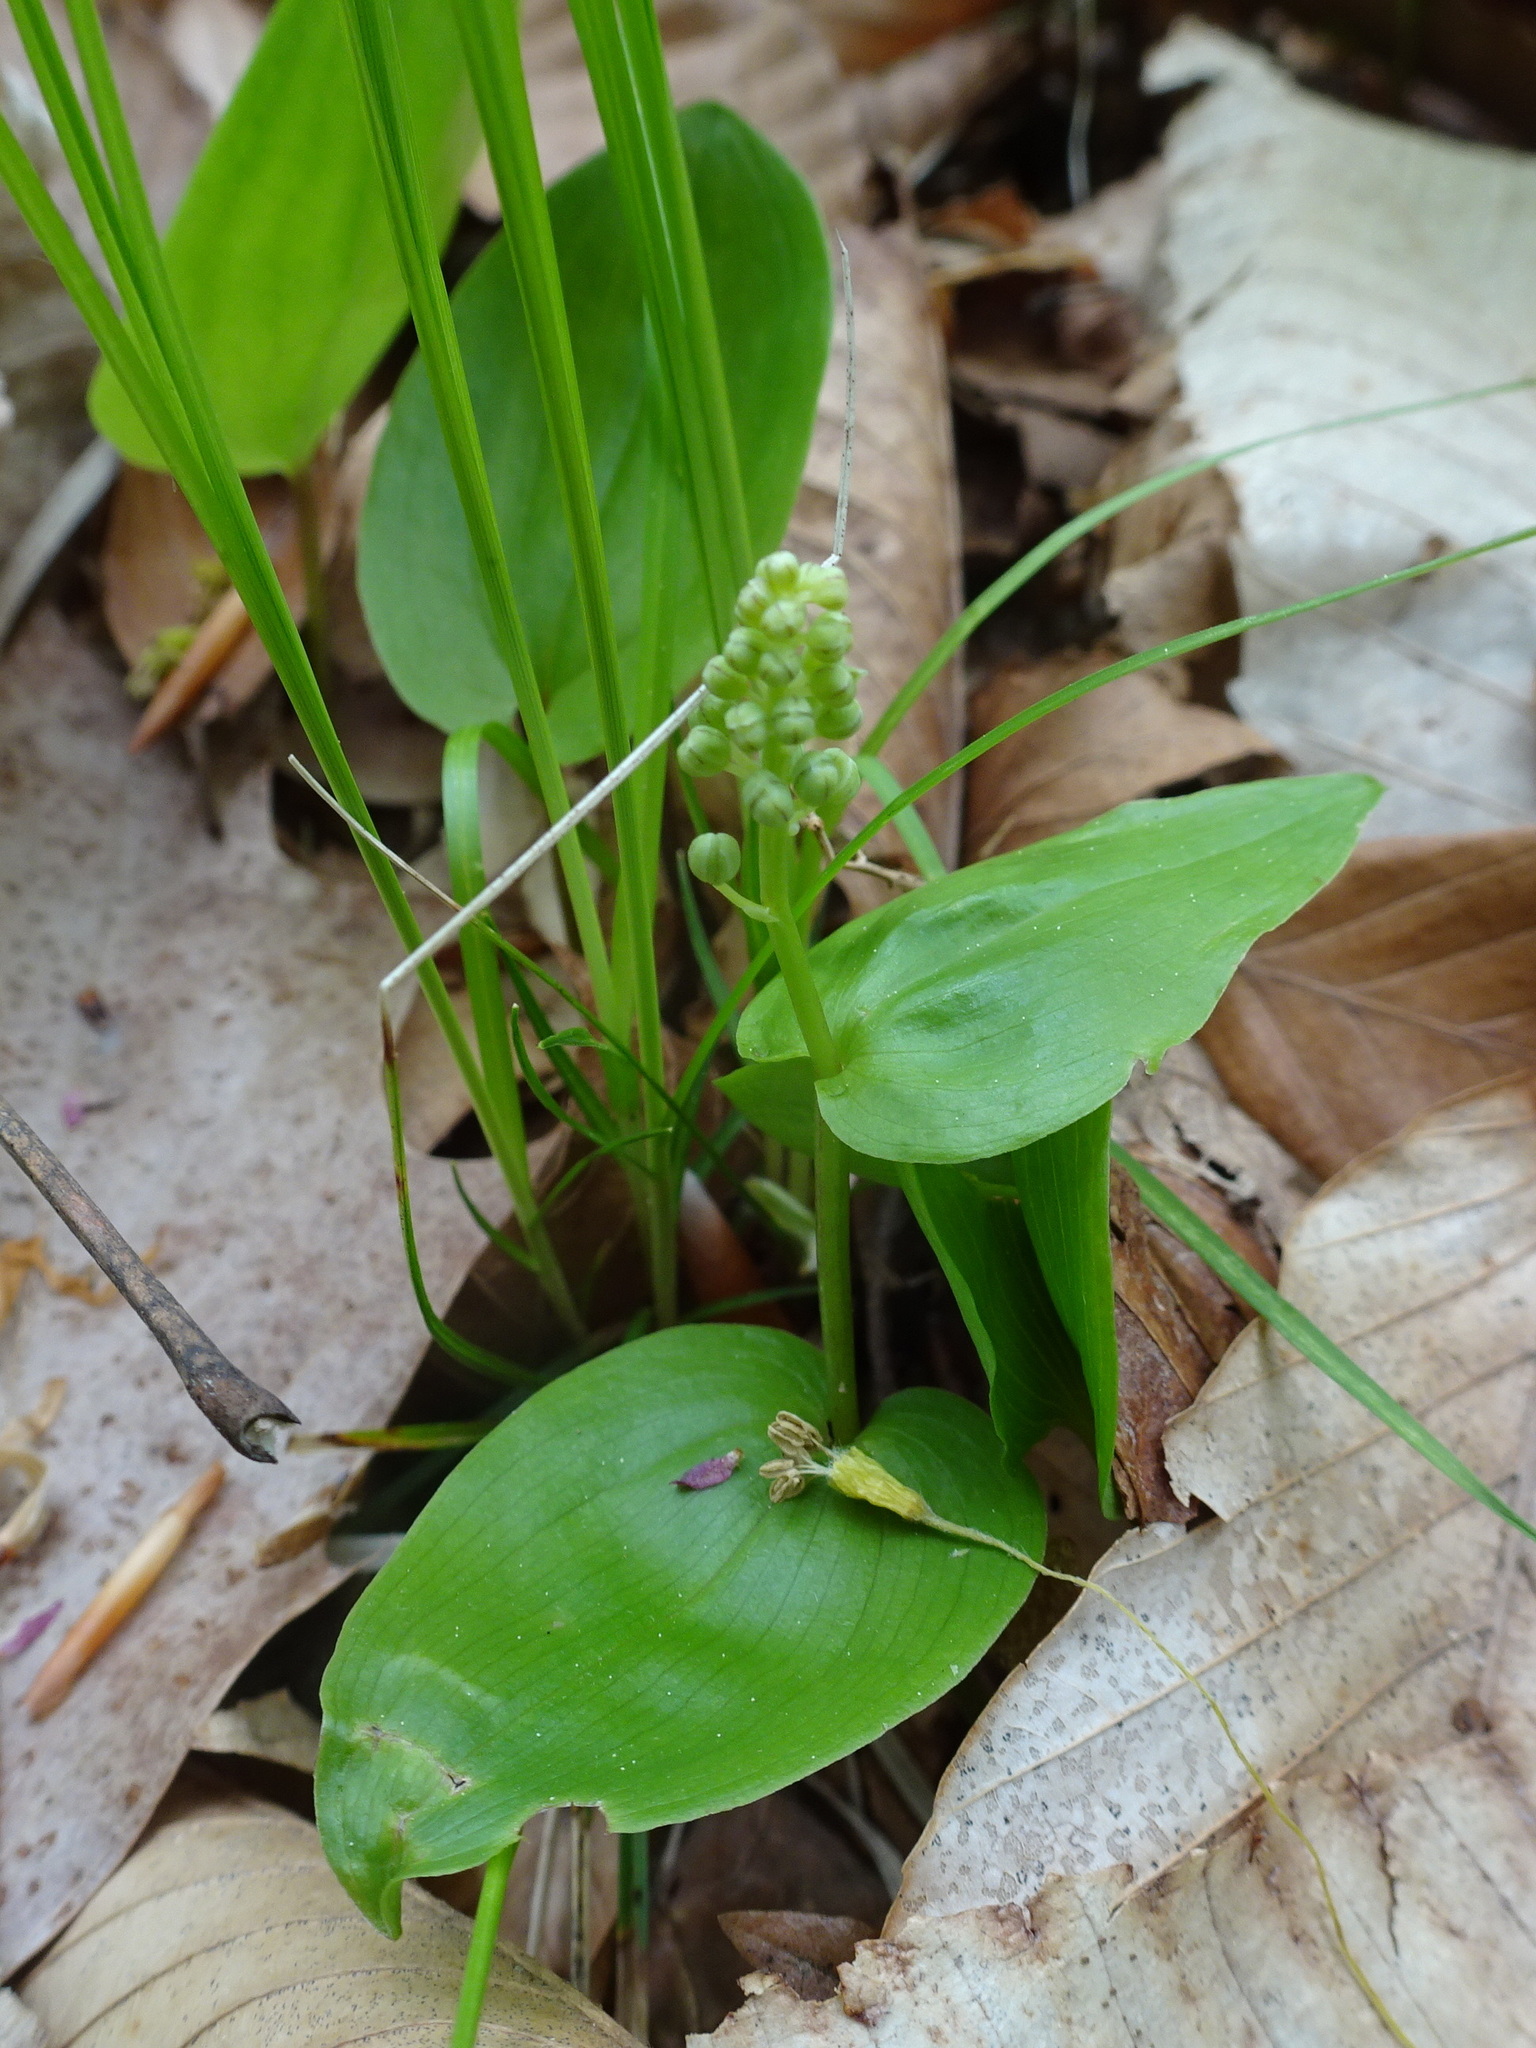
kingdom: Plantae
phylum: Tracheophyta
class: Liliopsida
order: Asparagales
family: Asparagaceae
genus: Maianthemum
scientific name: Maianthemum canadense
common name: False lily-of-the-valley
